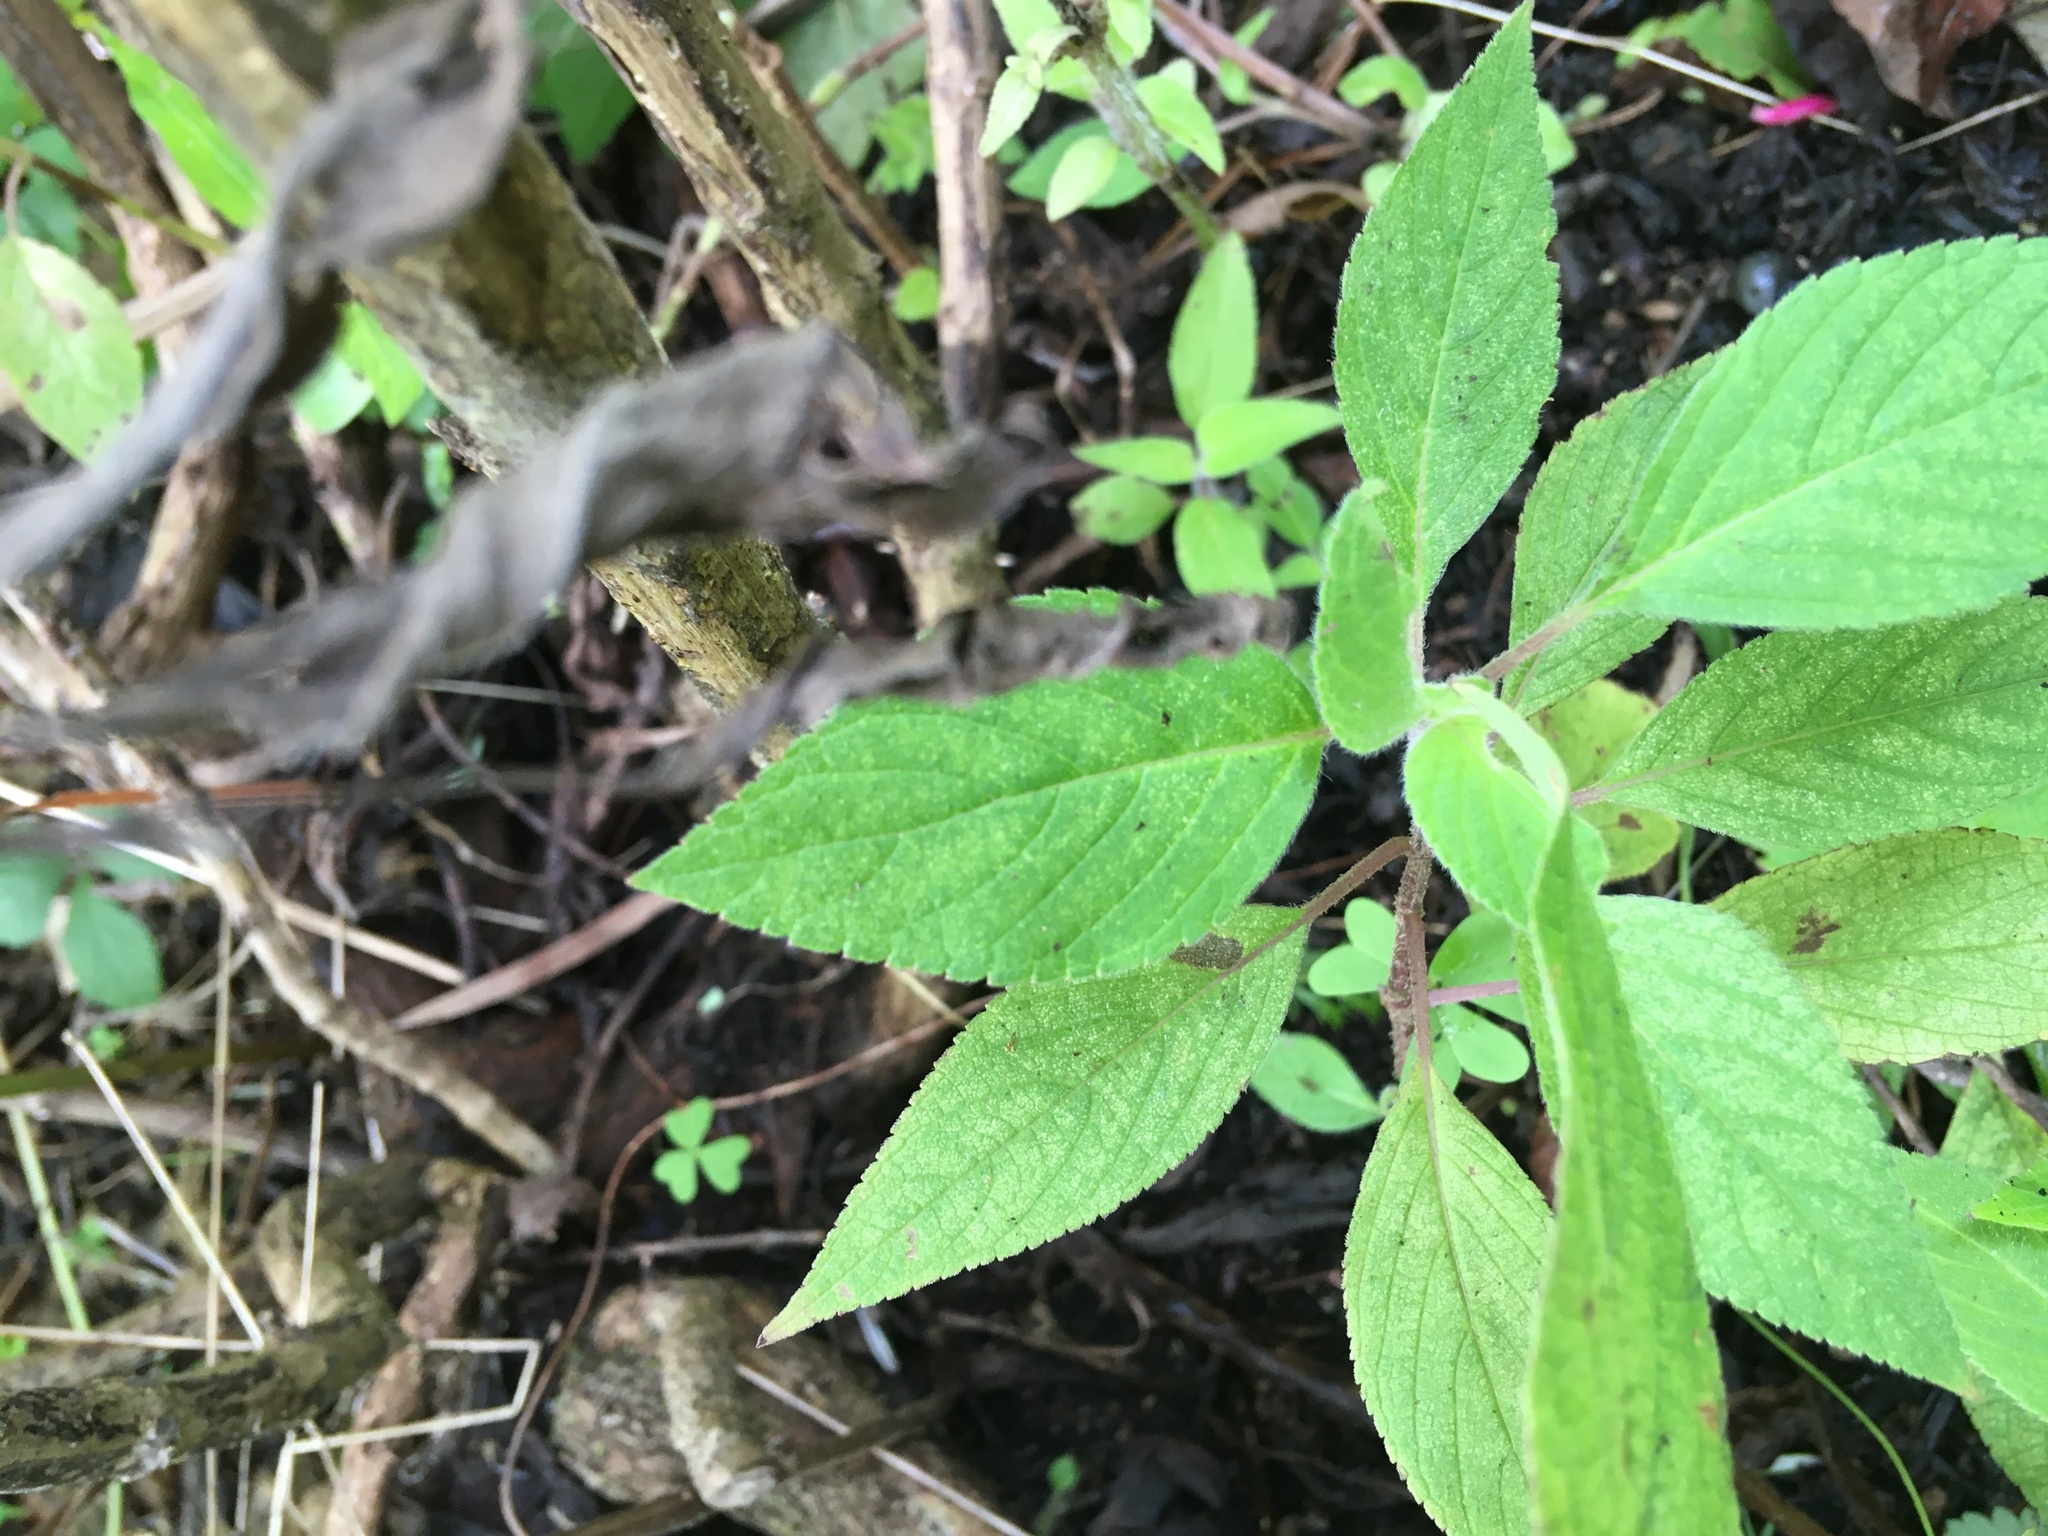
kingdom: Plantae
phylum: Tracheophyta
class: Pinopsida
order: Pinales
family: Phyllocladaceae
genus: Phyllocladus
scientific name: Phyllocladus trichomanoides
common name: Celery pine
